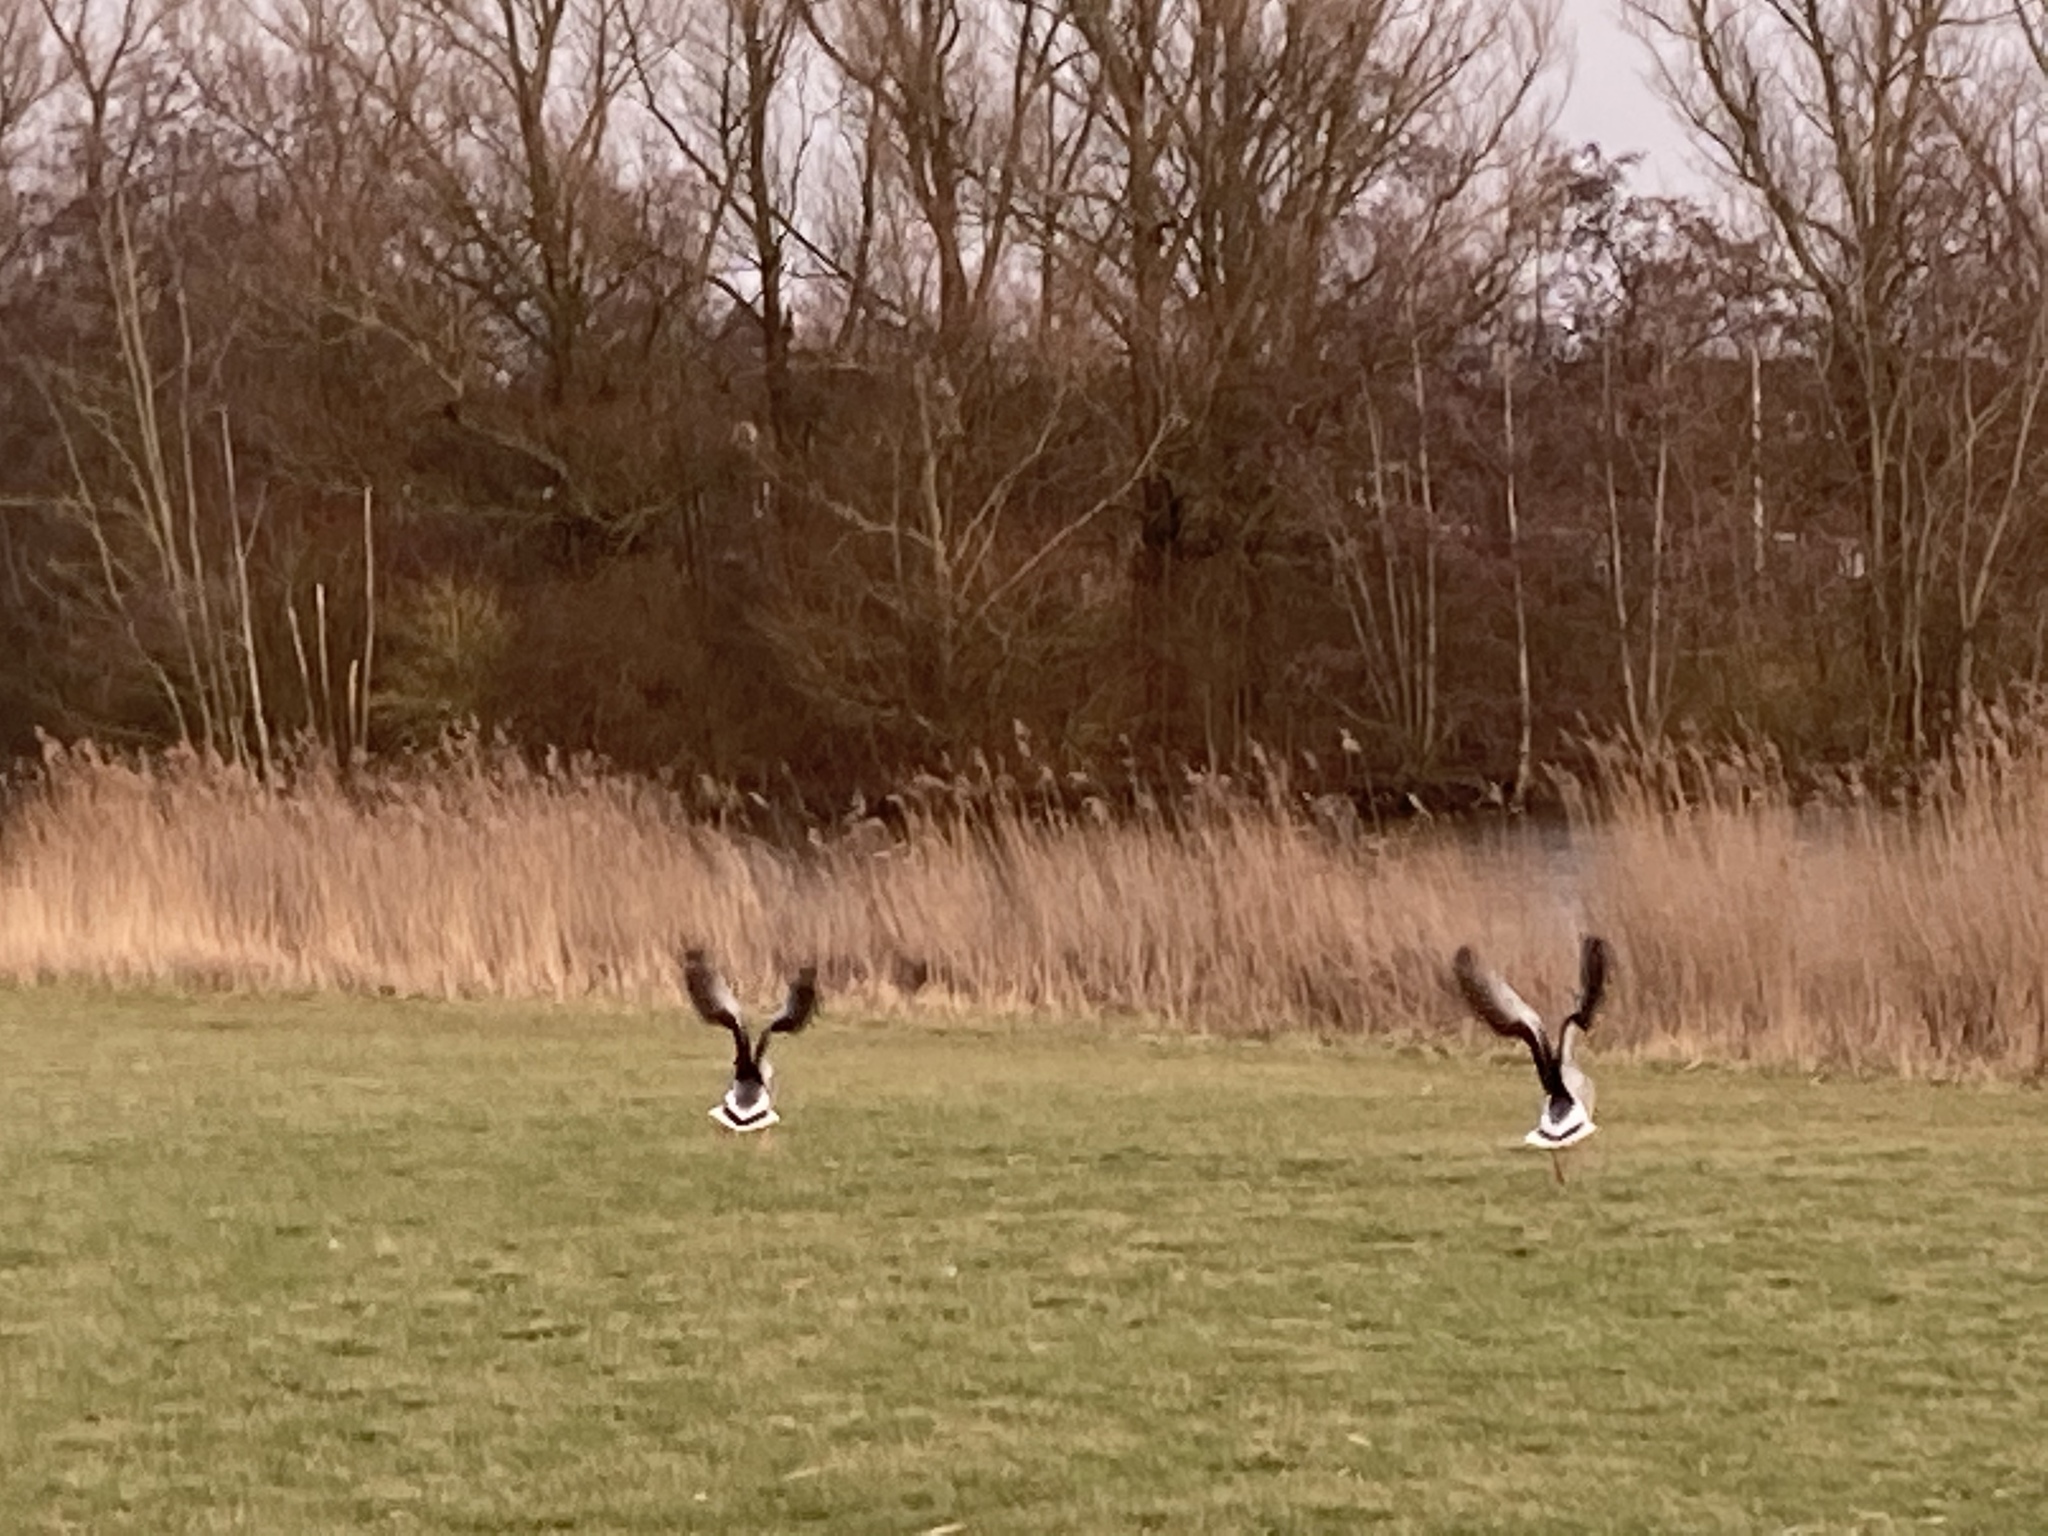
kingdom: Animalia
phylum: Chordata
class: Aves
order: Anseriformes
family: Anatidae
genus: Anser
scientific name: Anser anser
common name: Greylag goose
